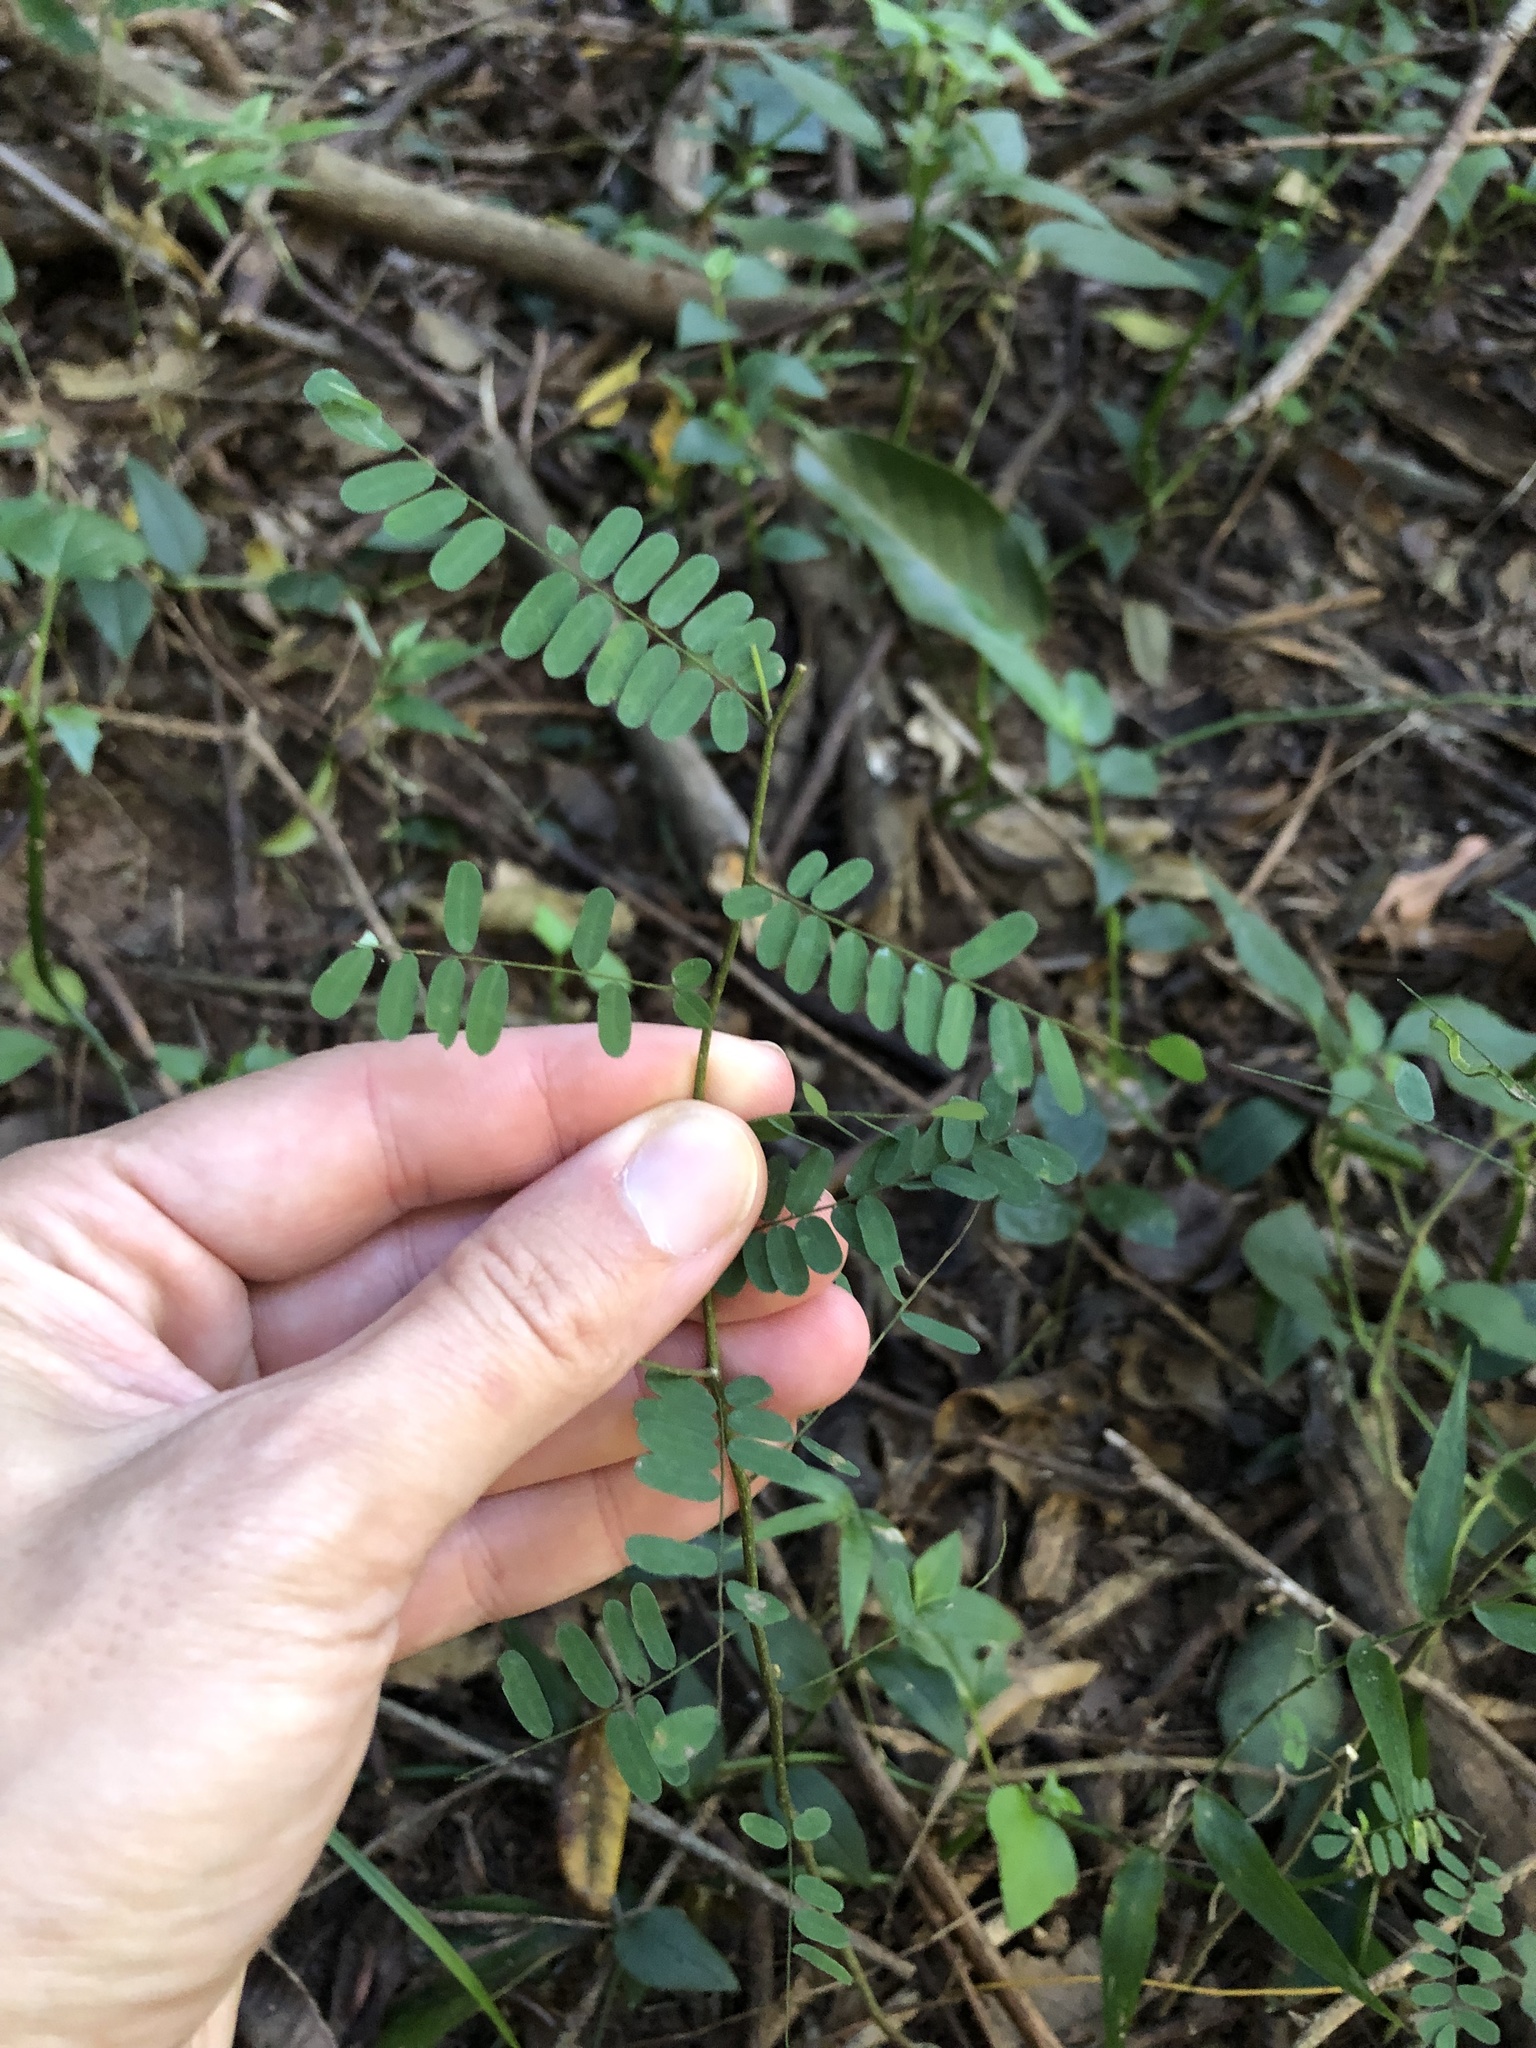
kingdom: Plantae
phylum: Tracheophyta
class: Magnoliopsida
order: Fabales
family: Fabaceae
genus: Dalbergia
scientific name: Dalbergia armata
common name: Hluhluwe climber
